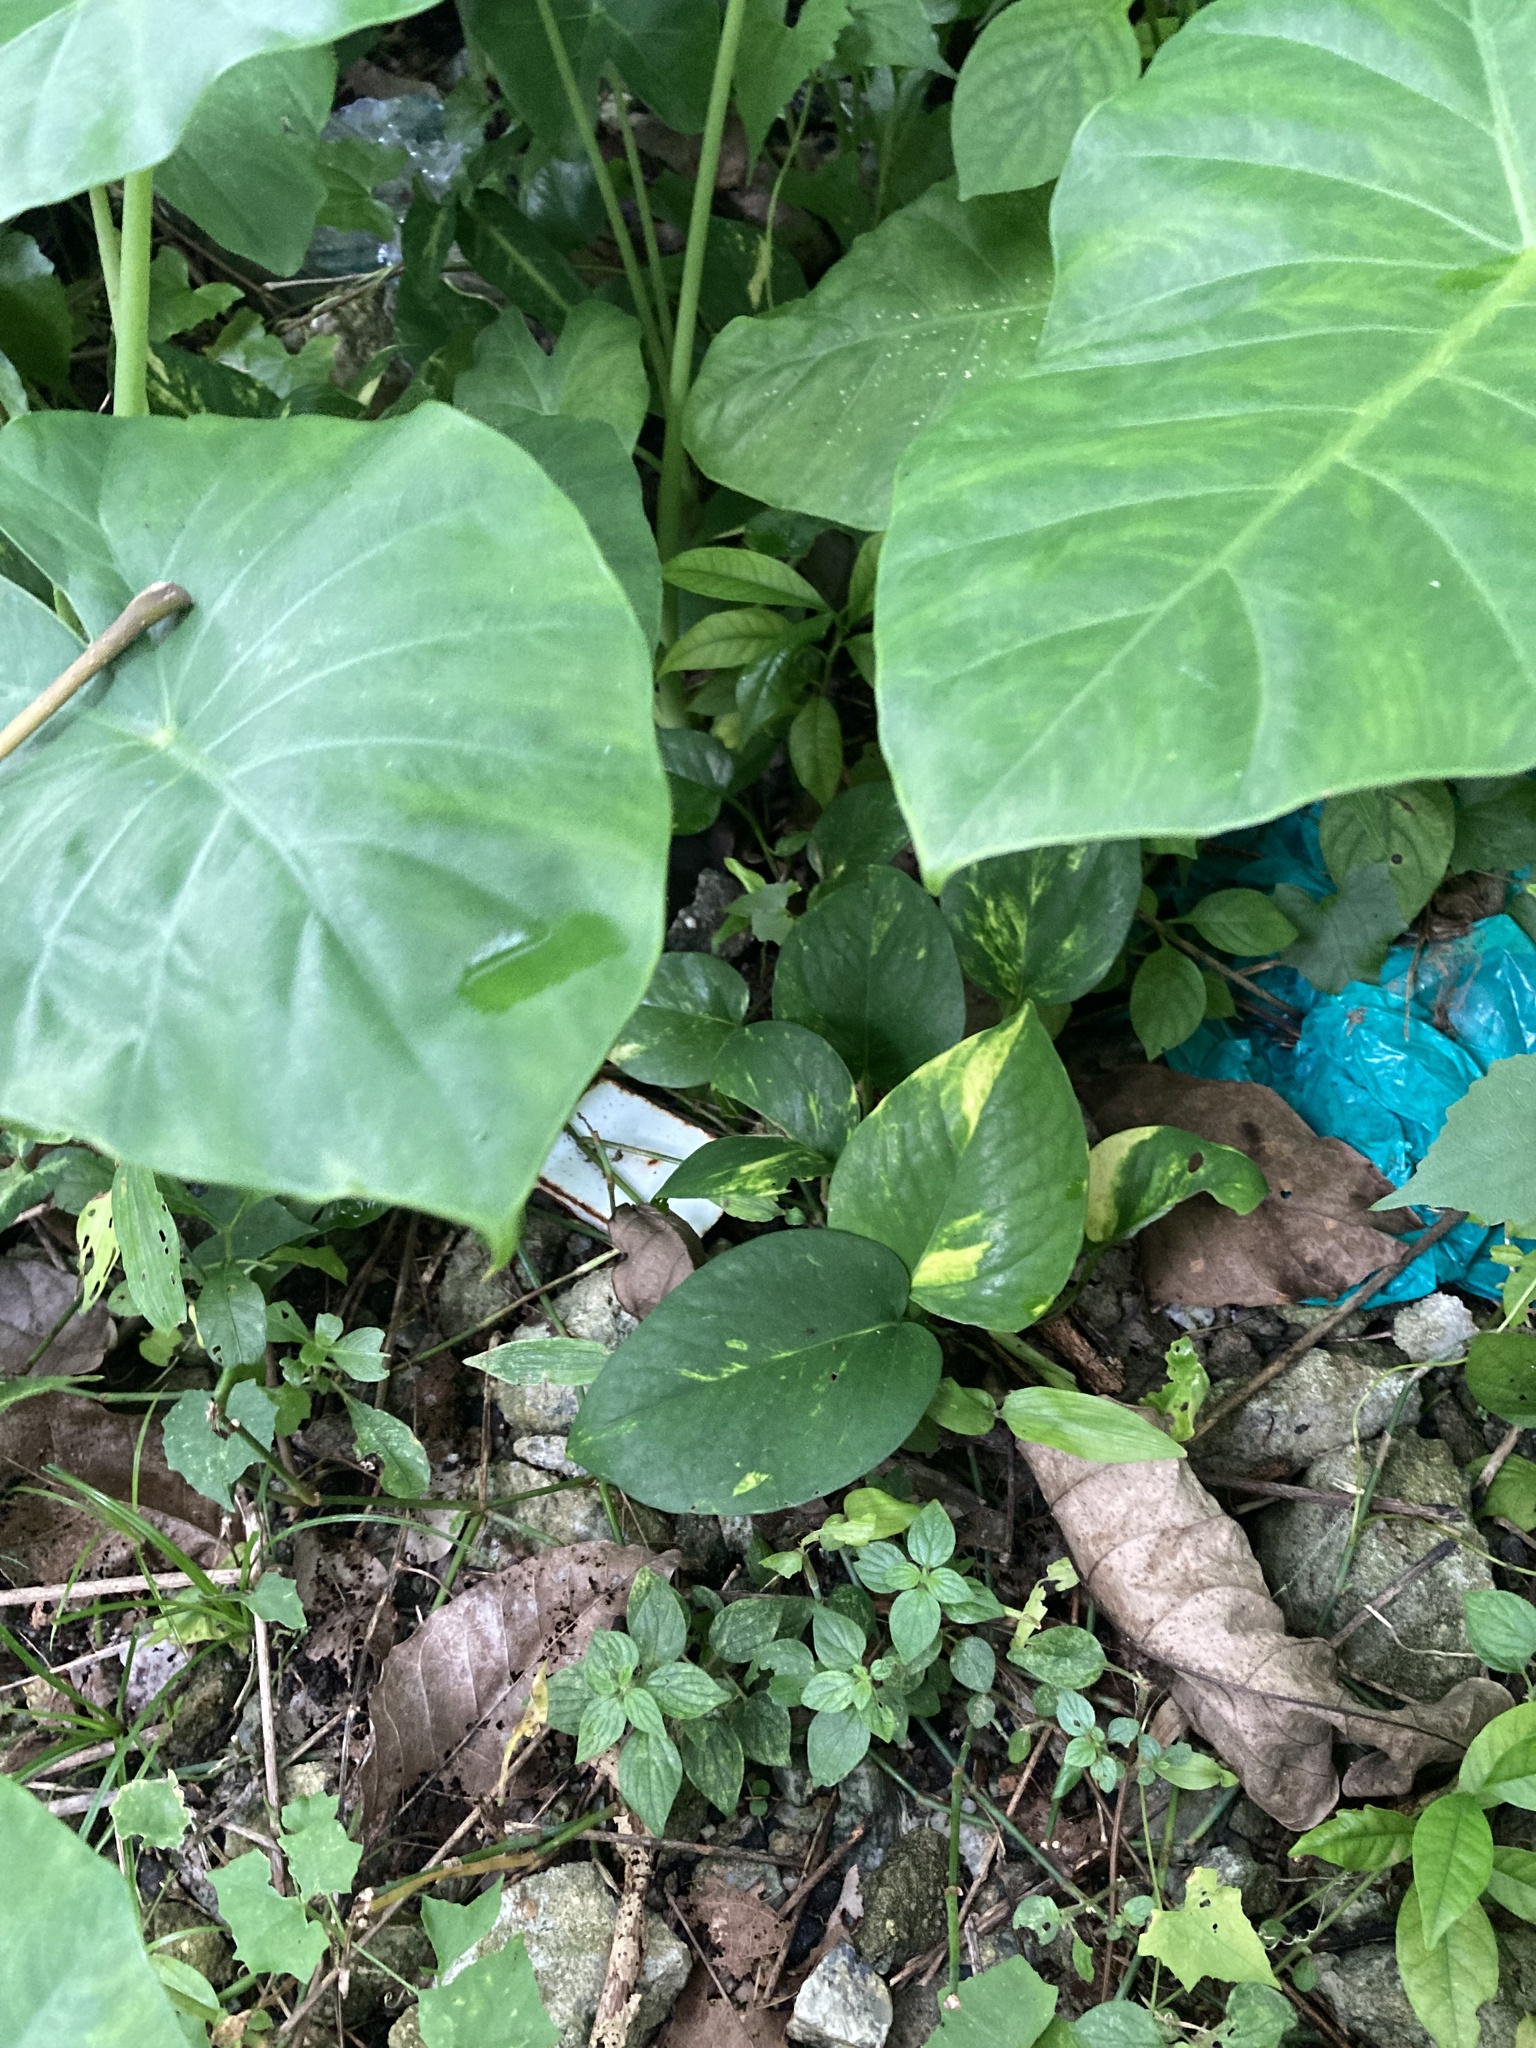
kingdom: Plantae
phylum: Tracheophyta
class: Liliopsida
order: Alismatales
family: Araceae
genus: Epipremnum
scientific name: Epipremnum aureum
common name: Golden hunter's-robe
